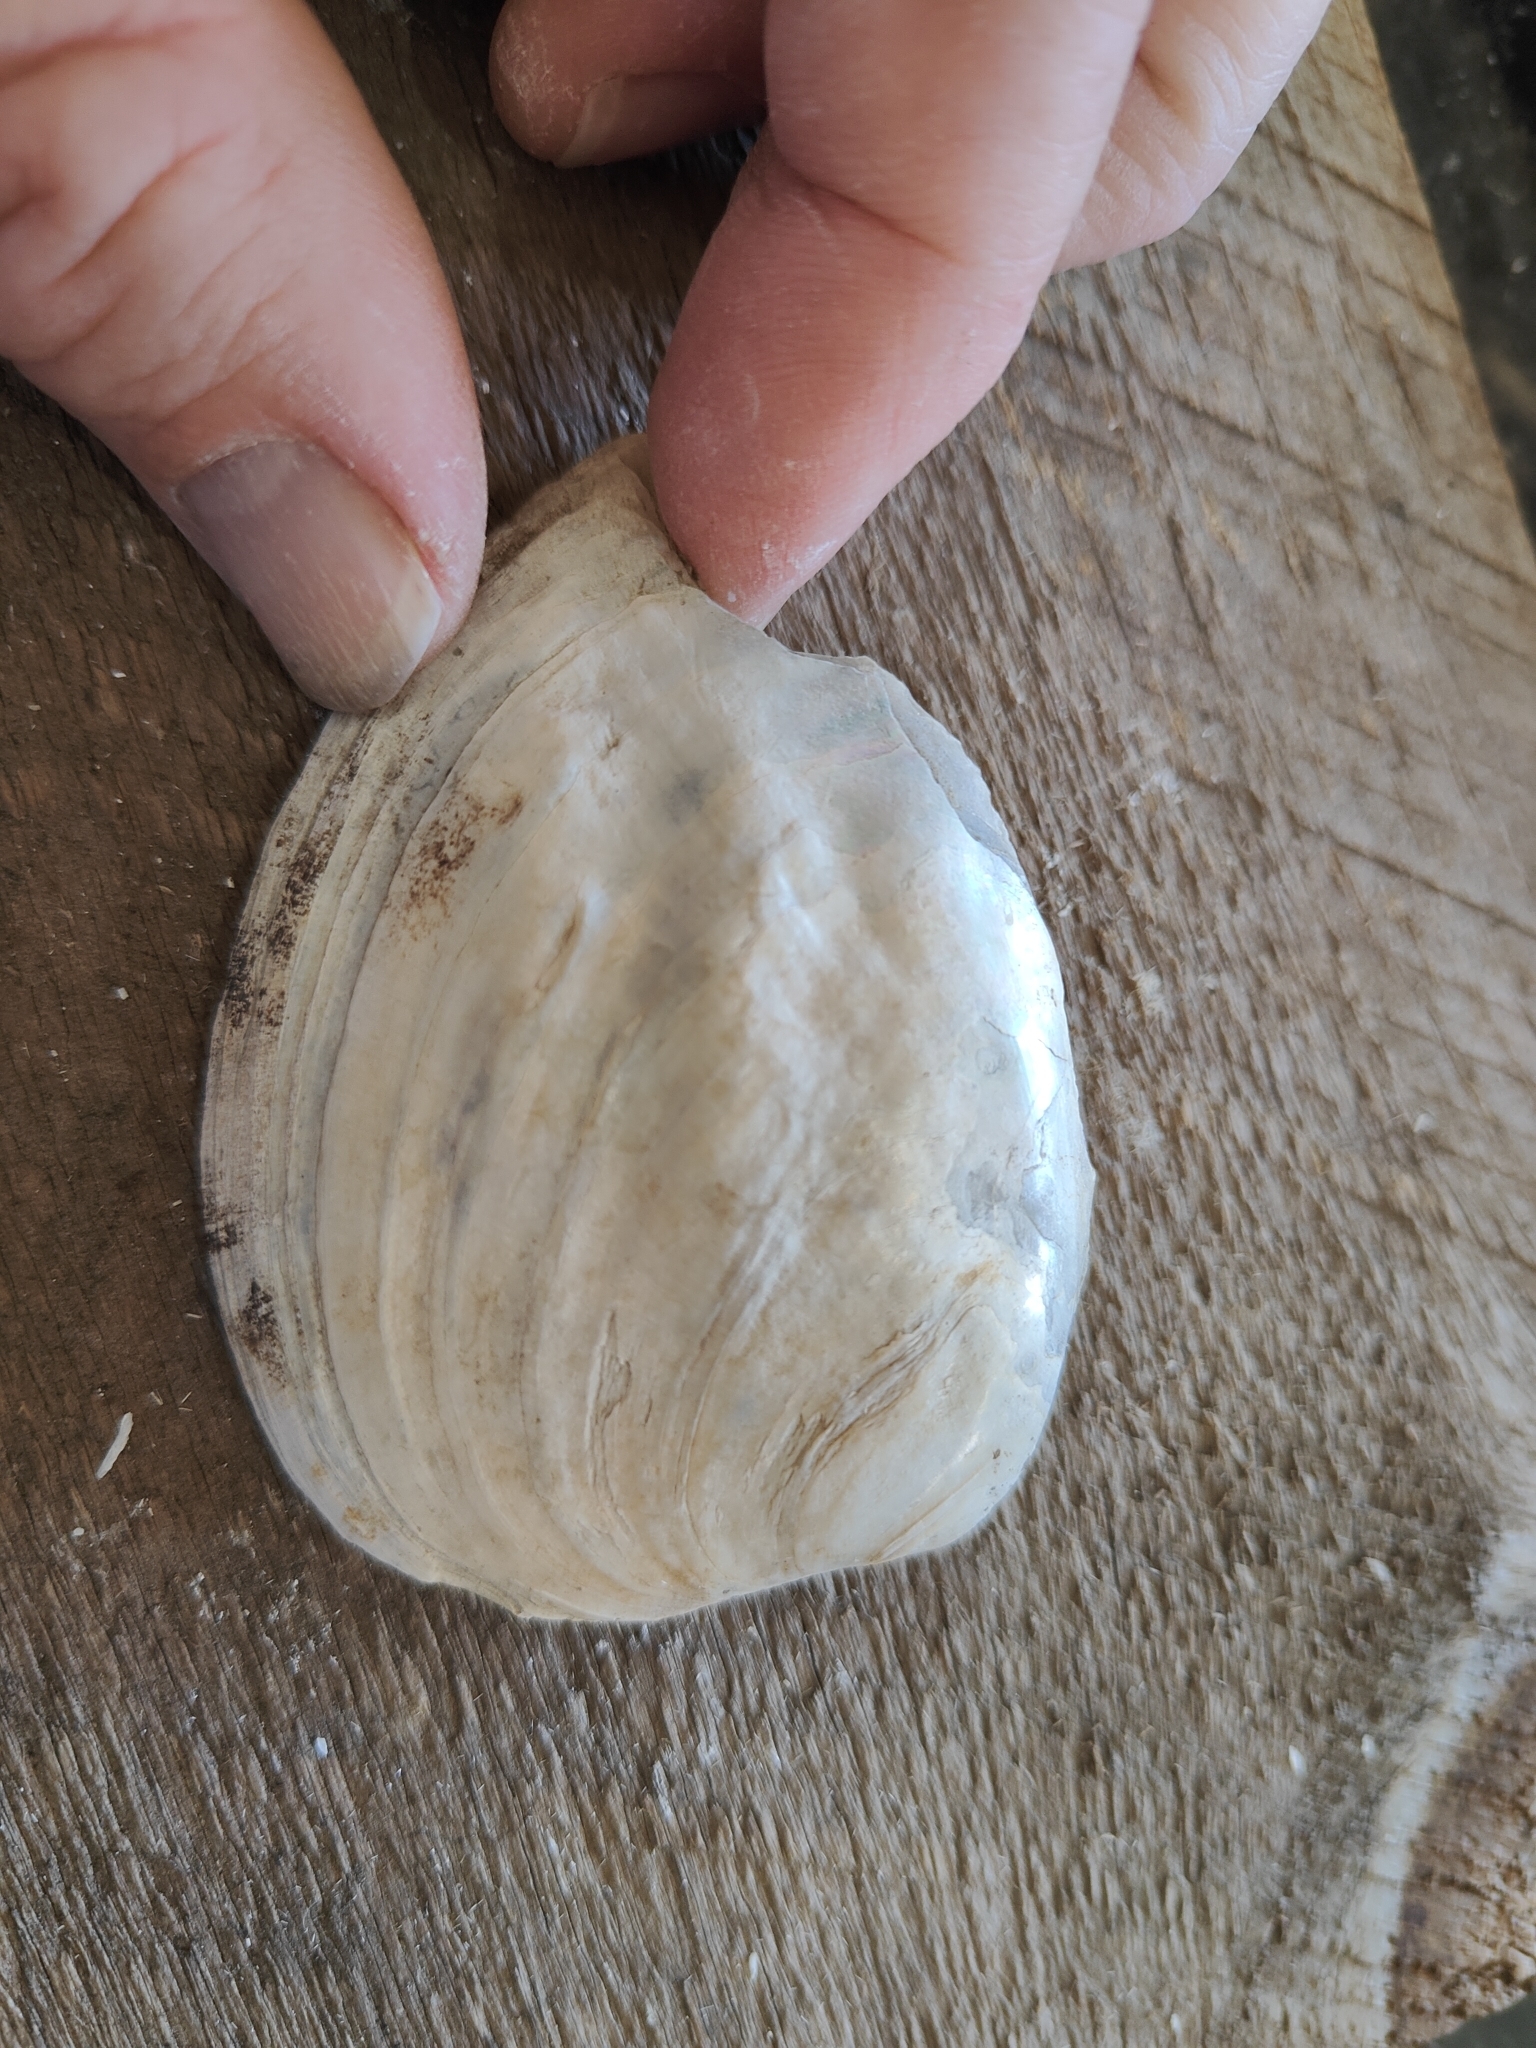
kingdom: Animalia
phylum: Mollusca
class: Bivalvia
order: Unionida
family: Unionidae
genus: Amblema
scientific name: Amblema plicata
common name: Threeridge
